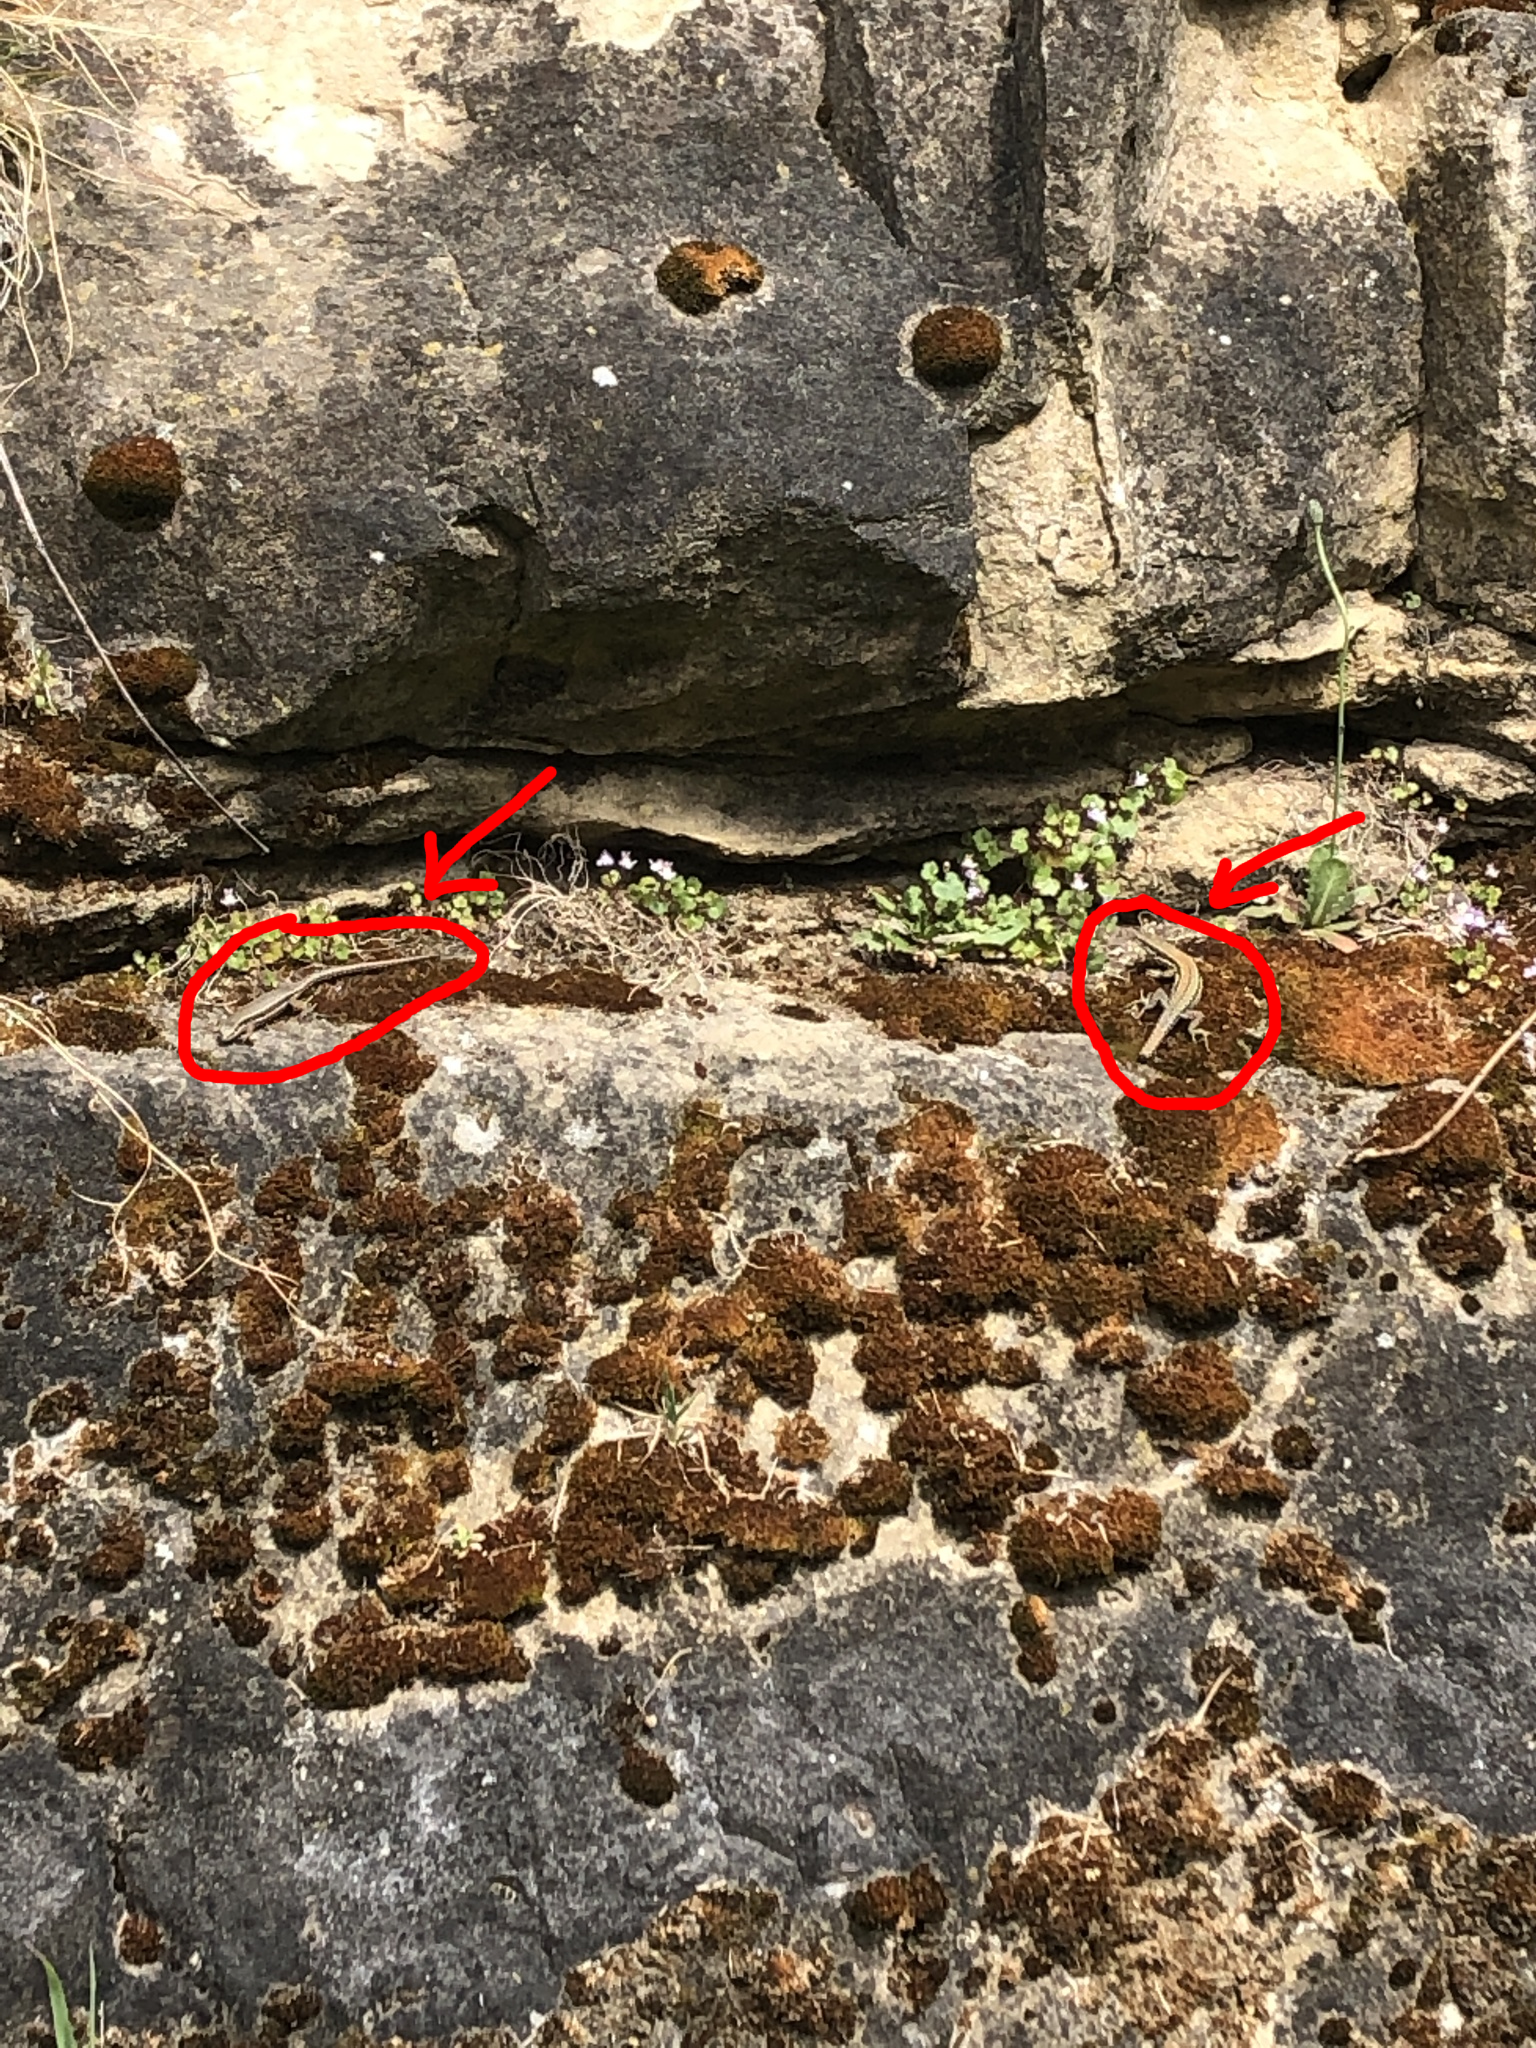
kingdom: Animalia
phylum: Chordata
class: Squamata
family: Lacertidae
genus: Podarcis
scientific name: Podarcis muralis
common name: Common wall lizard
